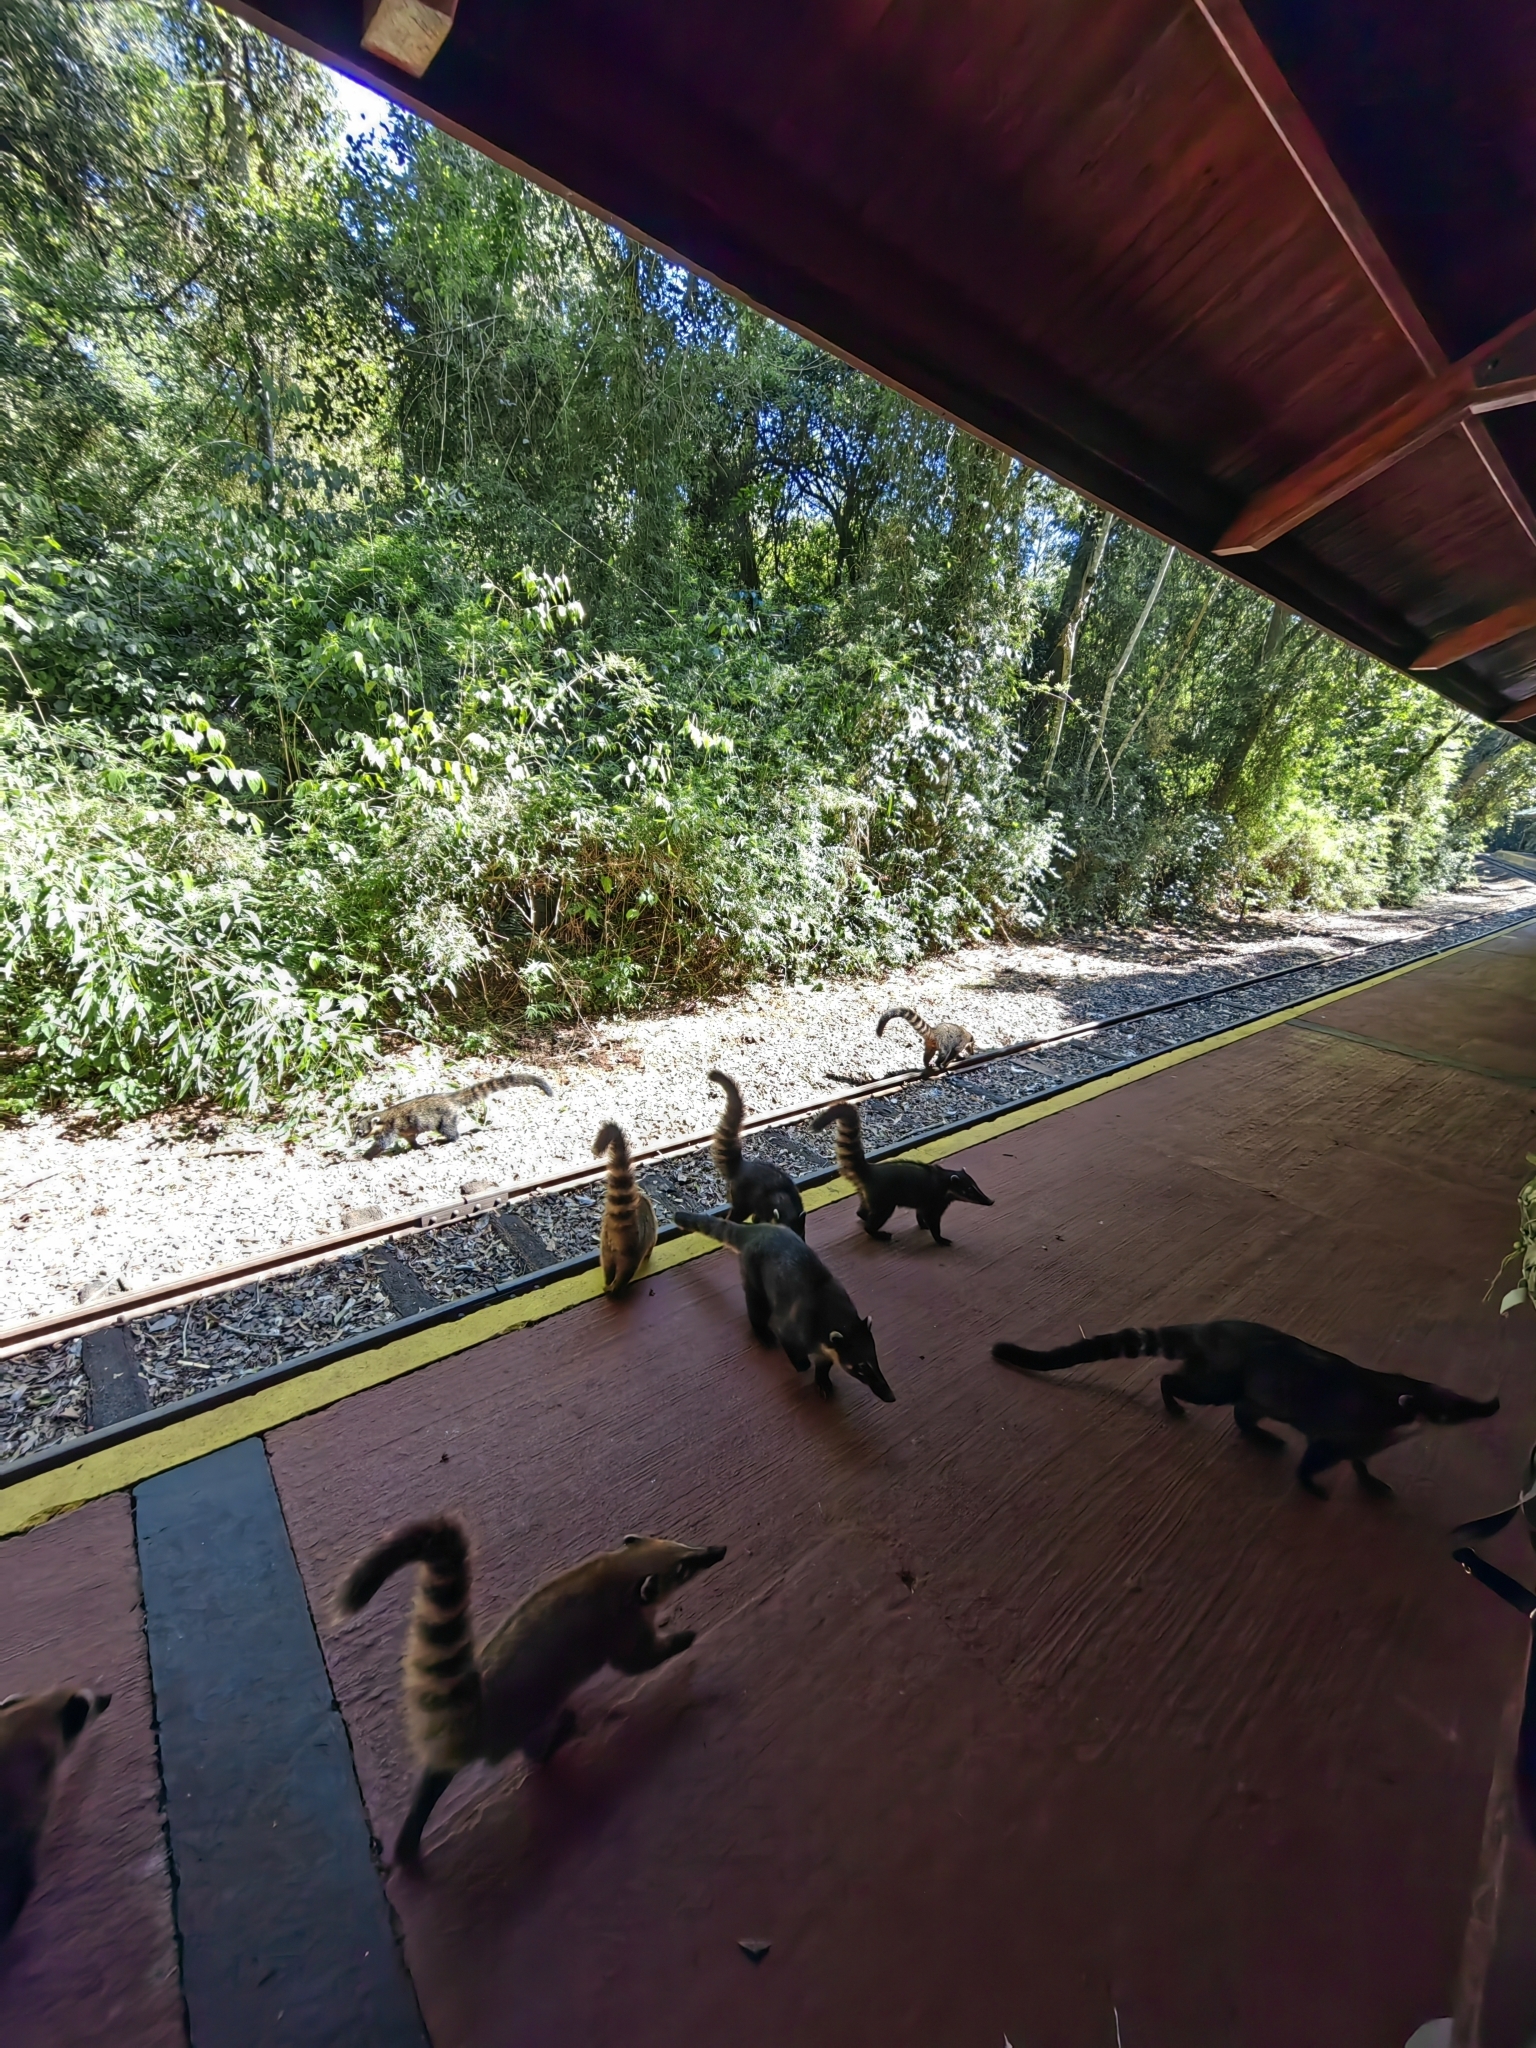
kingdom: Animalia
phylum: Chordata
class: Mammalia
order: Carnivora
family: Procyonidae
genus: Nasua
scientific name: Nasua nasua
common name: South american coati
